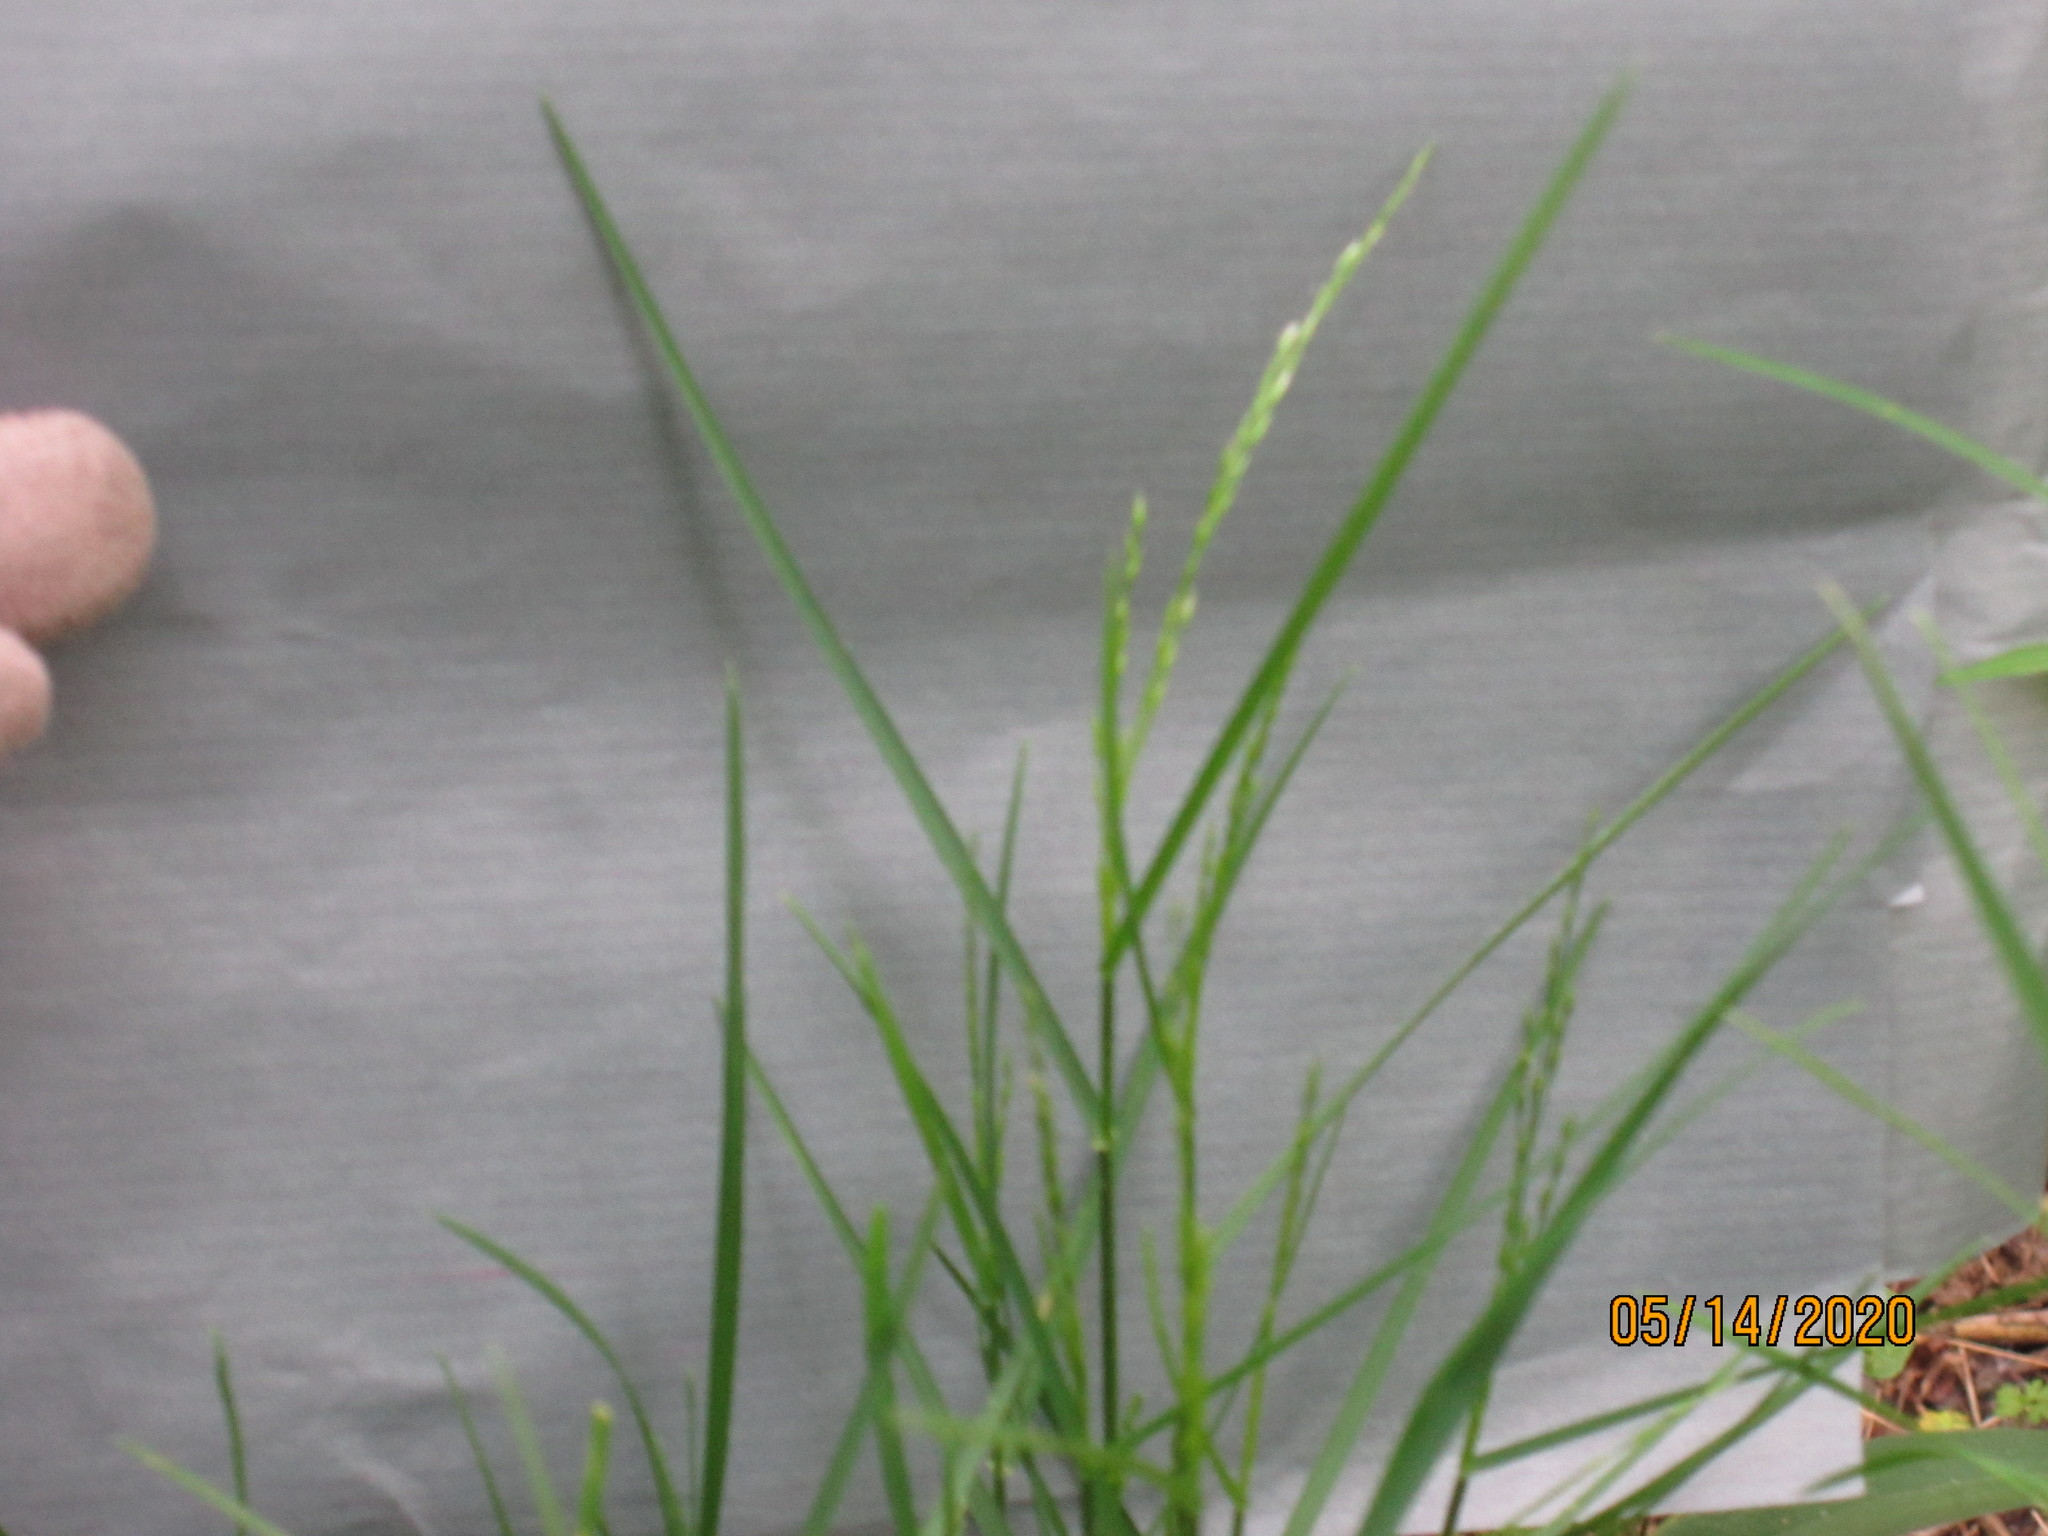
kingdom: Plantae
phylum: Tracheophyta
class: Liliopsida
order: Poales
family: Poaceae
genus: Poa
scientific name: Poa nemoralis
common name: Wood bluegrass
